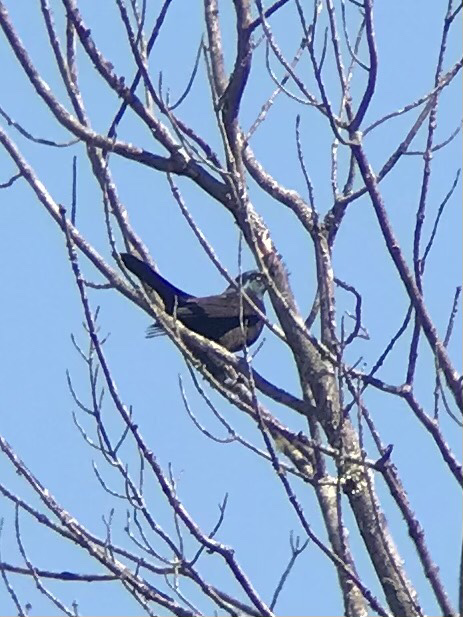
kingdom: Animalia
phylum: Chordata
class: Aves
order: Passeriformes
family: Icteridae
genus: Quiscalus
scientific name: Quiscalus quiscula
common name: Common grackle
